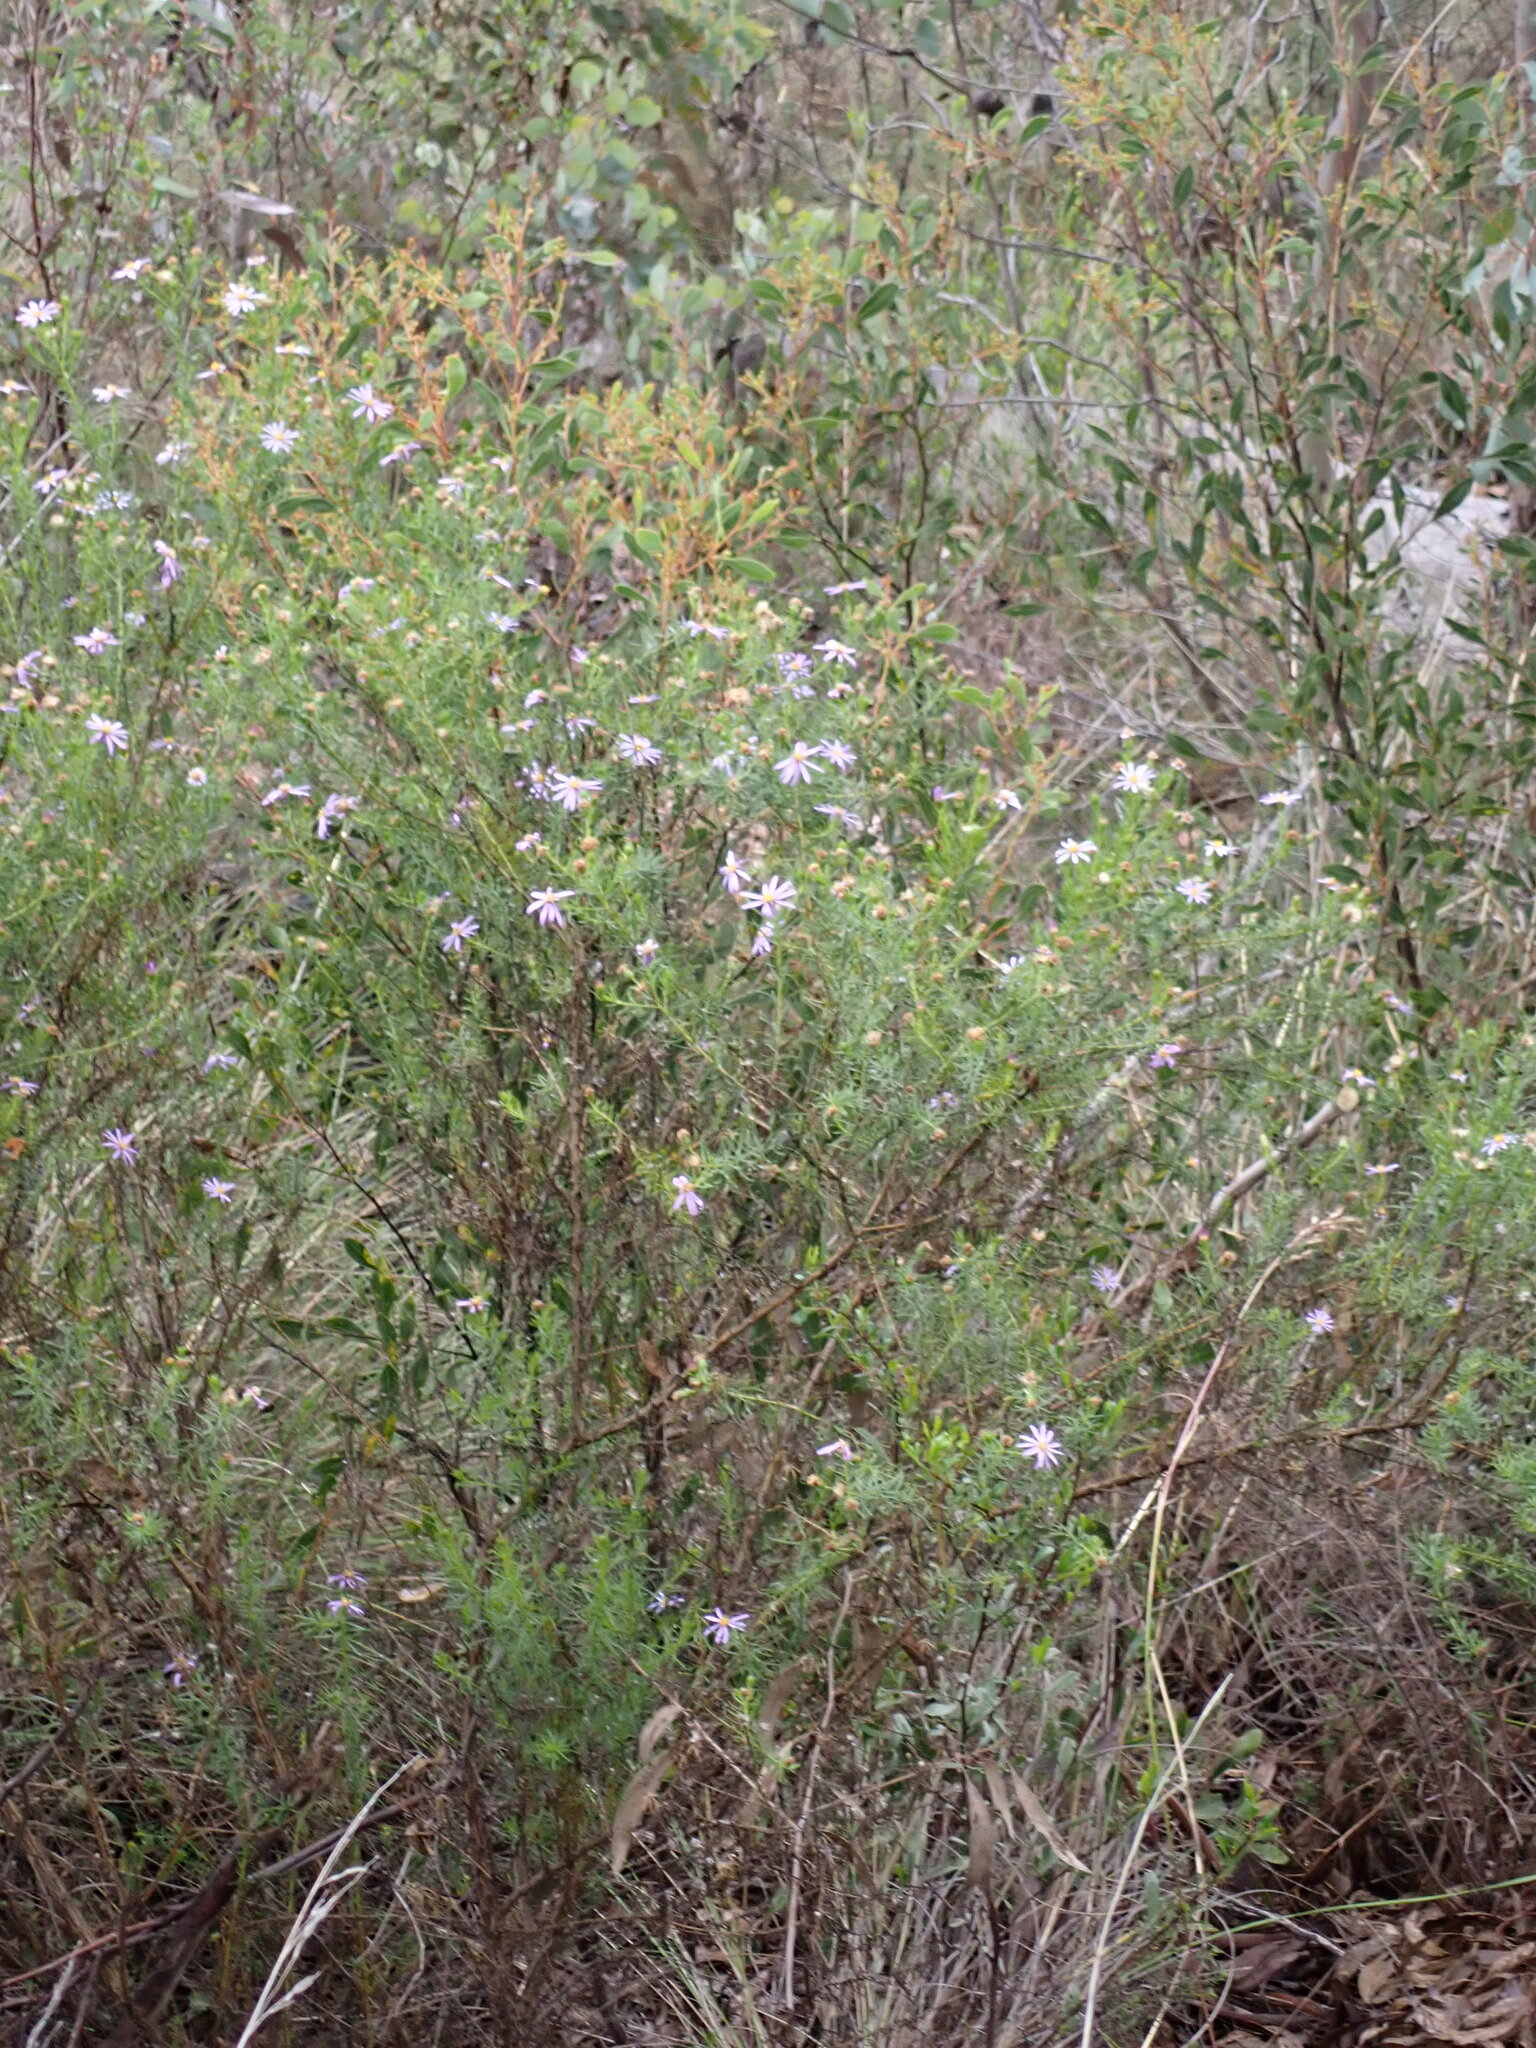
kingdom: Plantae
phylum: Tracheophyta
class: Magnoliopsida
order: Asterales
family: Asteraceae
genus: Olearia
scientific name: Olearia tenuifolia
